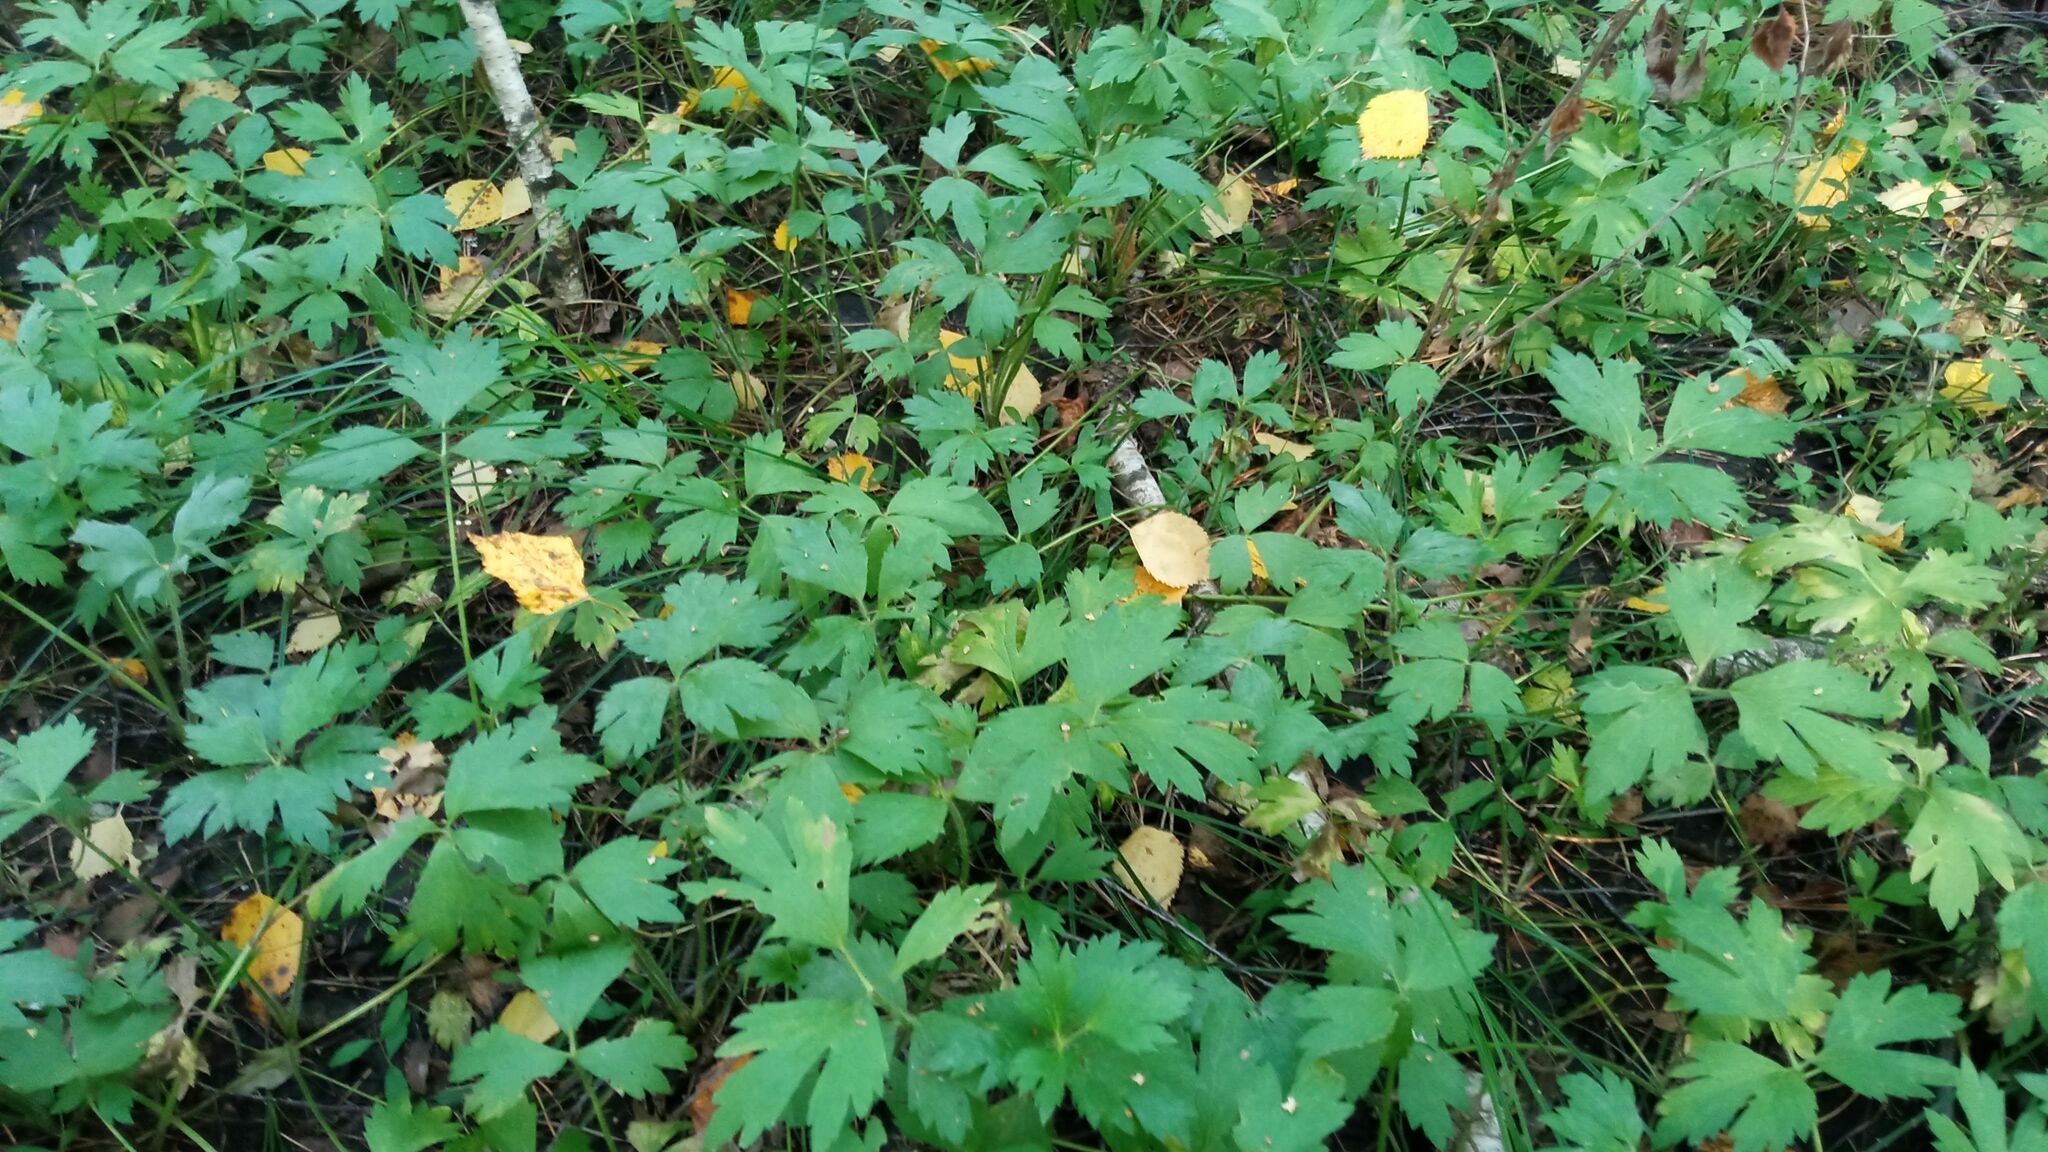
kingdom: Plantae
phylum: Tracheophyta
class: Magnoliopsida
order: Ranunculales
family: Ranunculaceae
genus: Ranunculus
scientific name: Ranunculus repens
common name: Creeping buttercup
